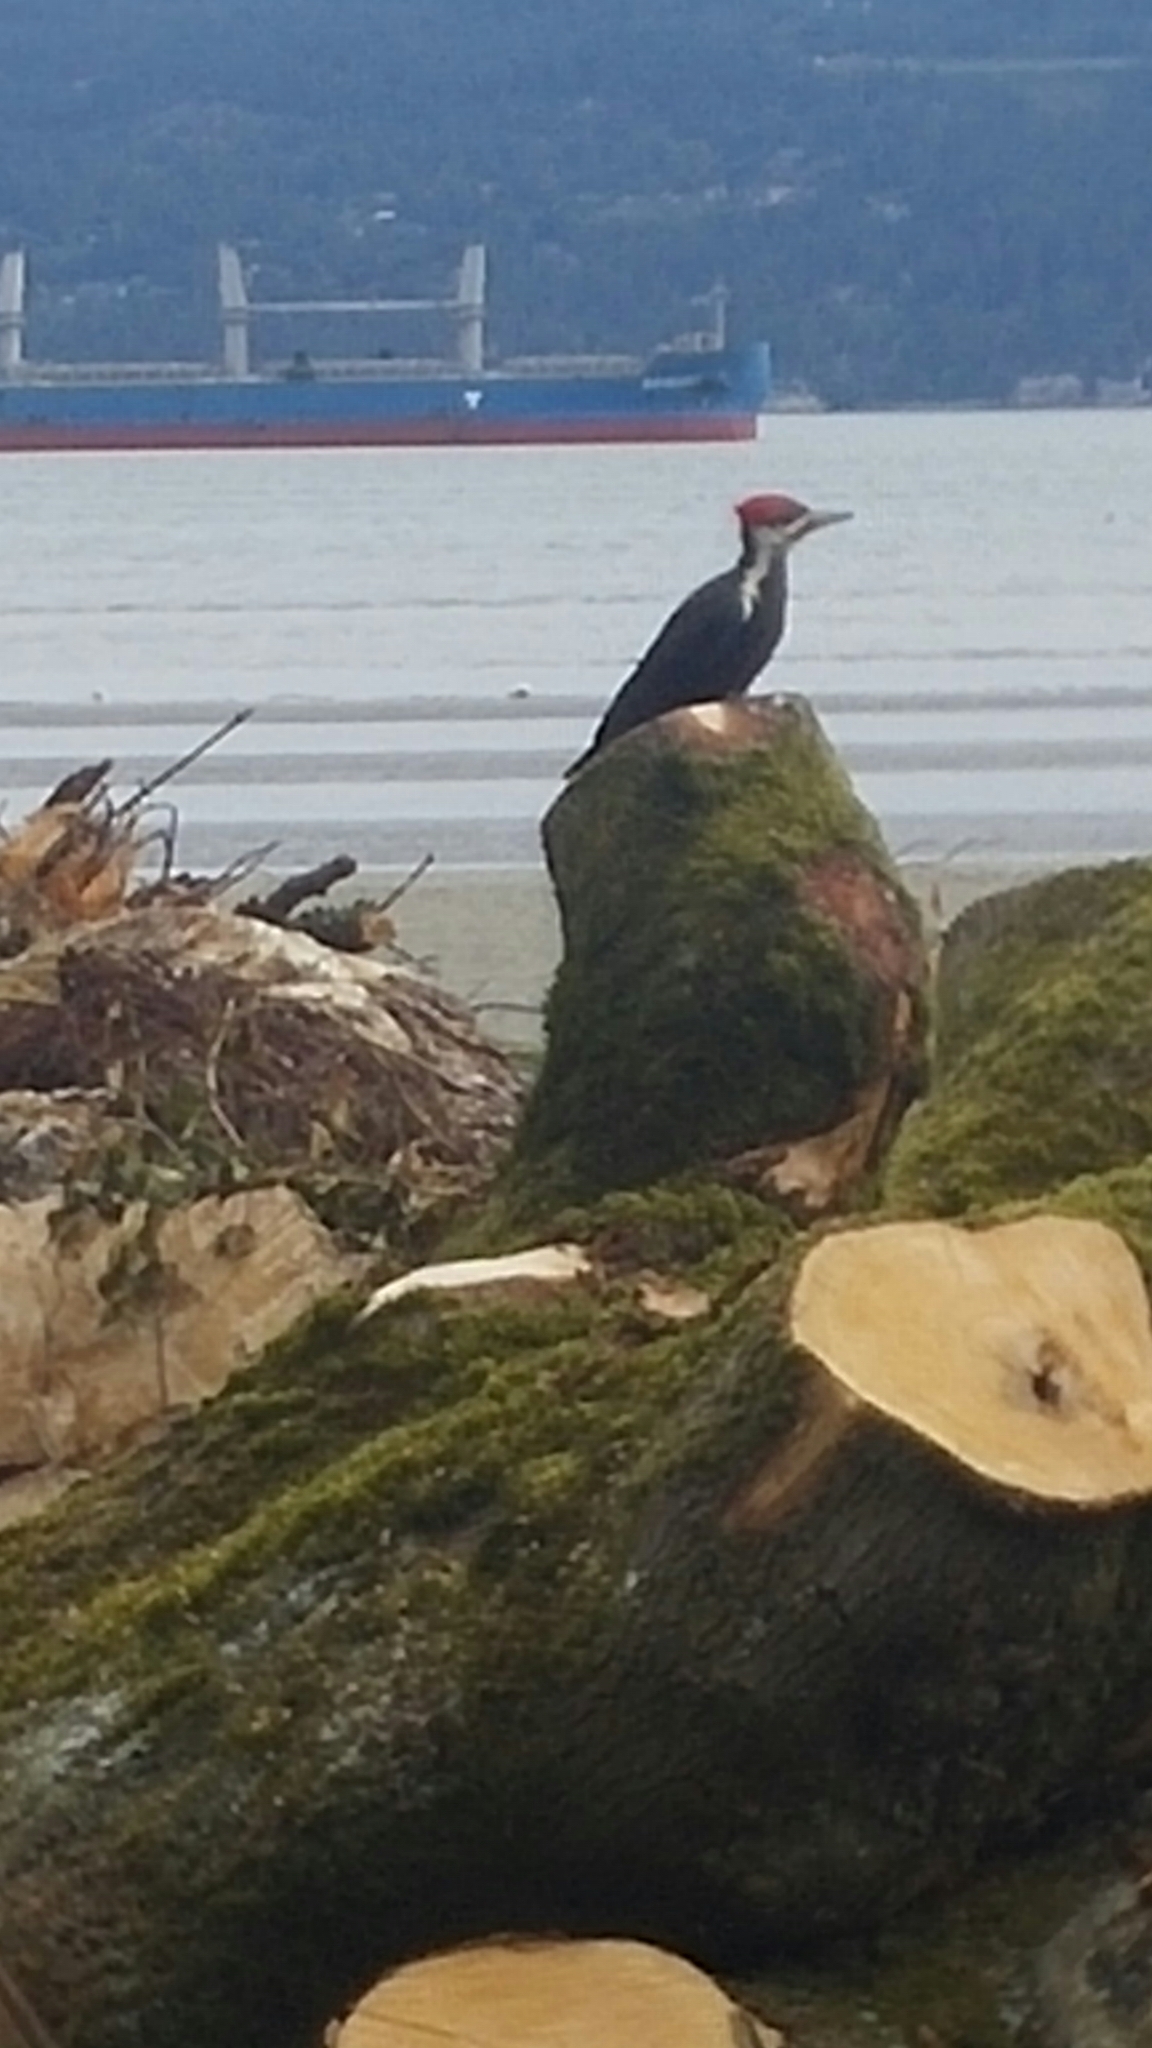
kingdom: Animalia
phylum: Chordata
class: Aves
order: Piciformes
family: Picidae
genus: Dryocopus
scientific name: Dryocopus pileatus
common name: Pileated woodpecker
